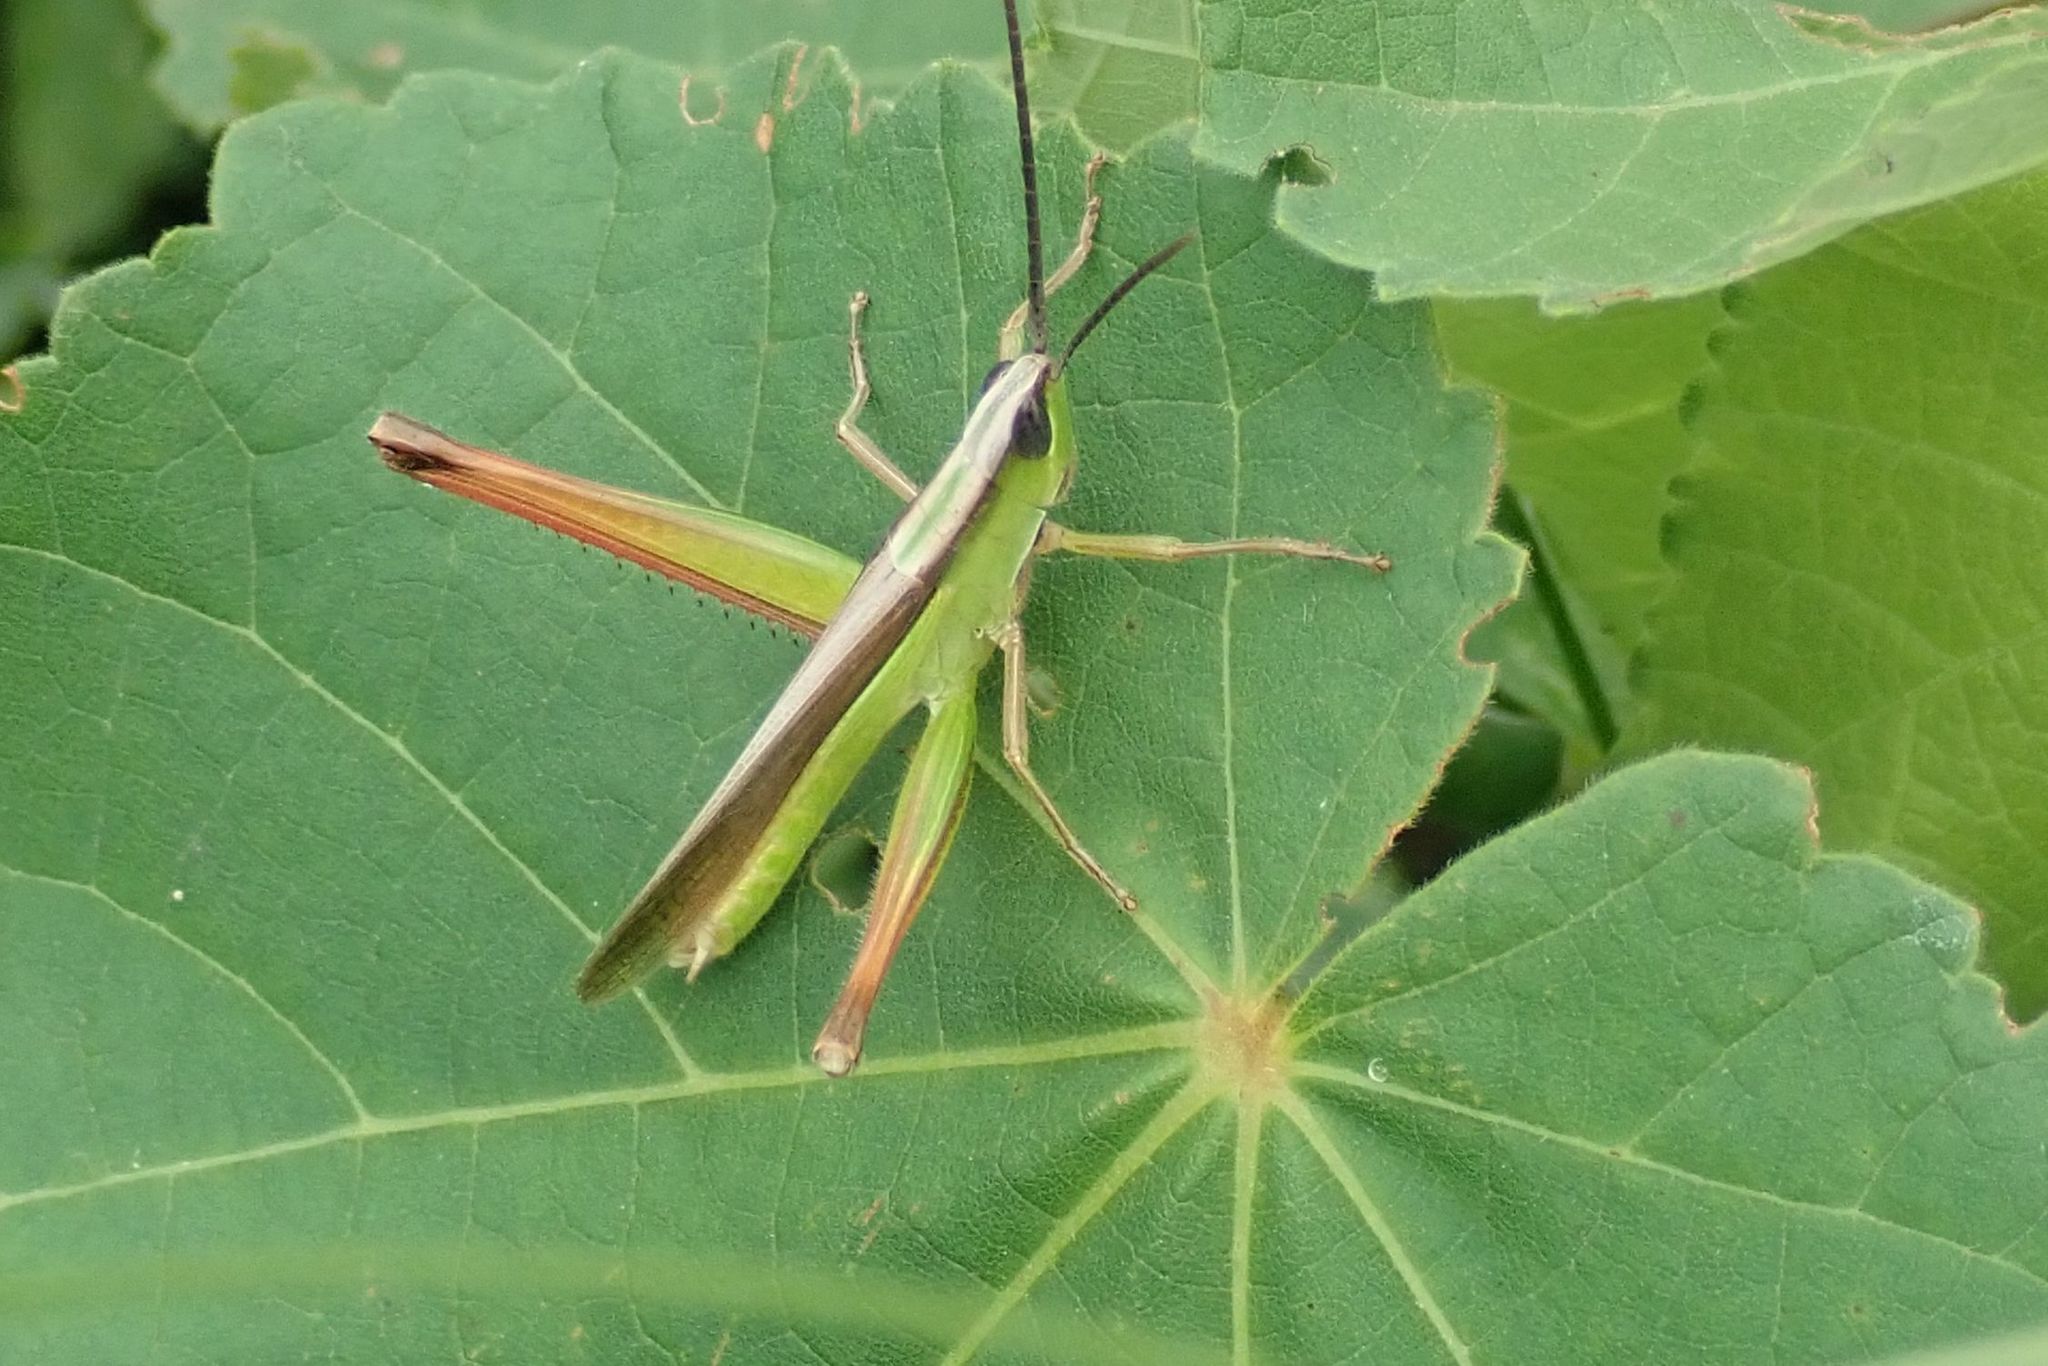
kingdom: Animalia
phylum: Arthropoda
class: Insecta
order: Orthoptera
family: Acrididae
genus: Orthochtha
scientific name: Orthochtha dasycnemis
